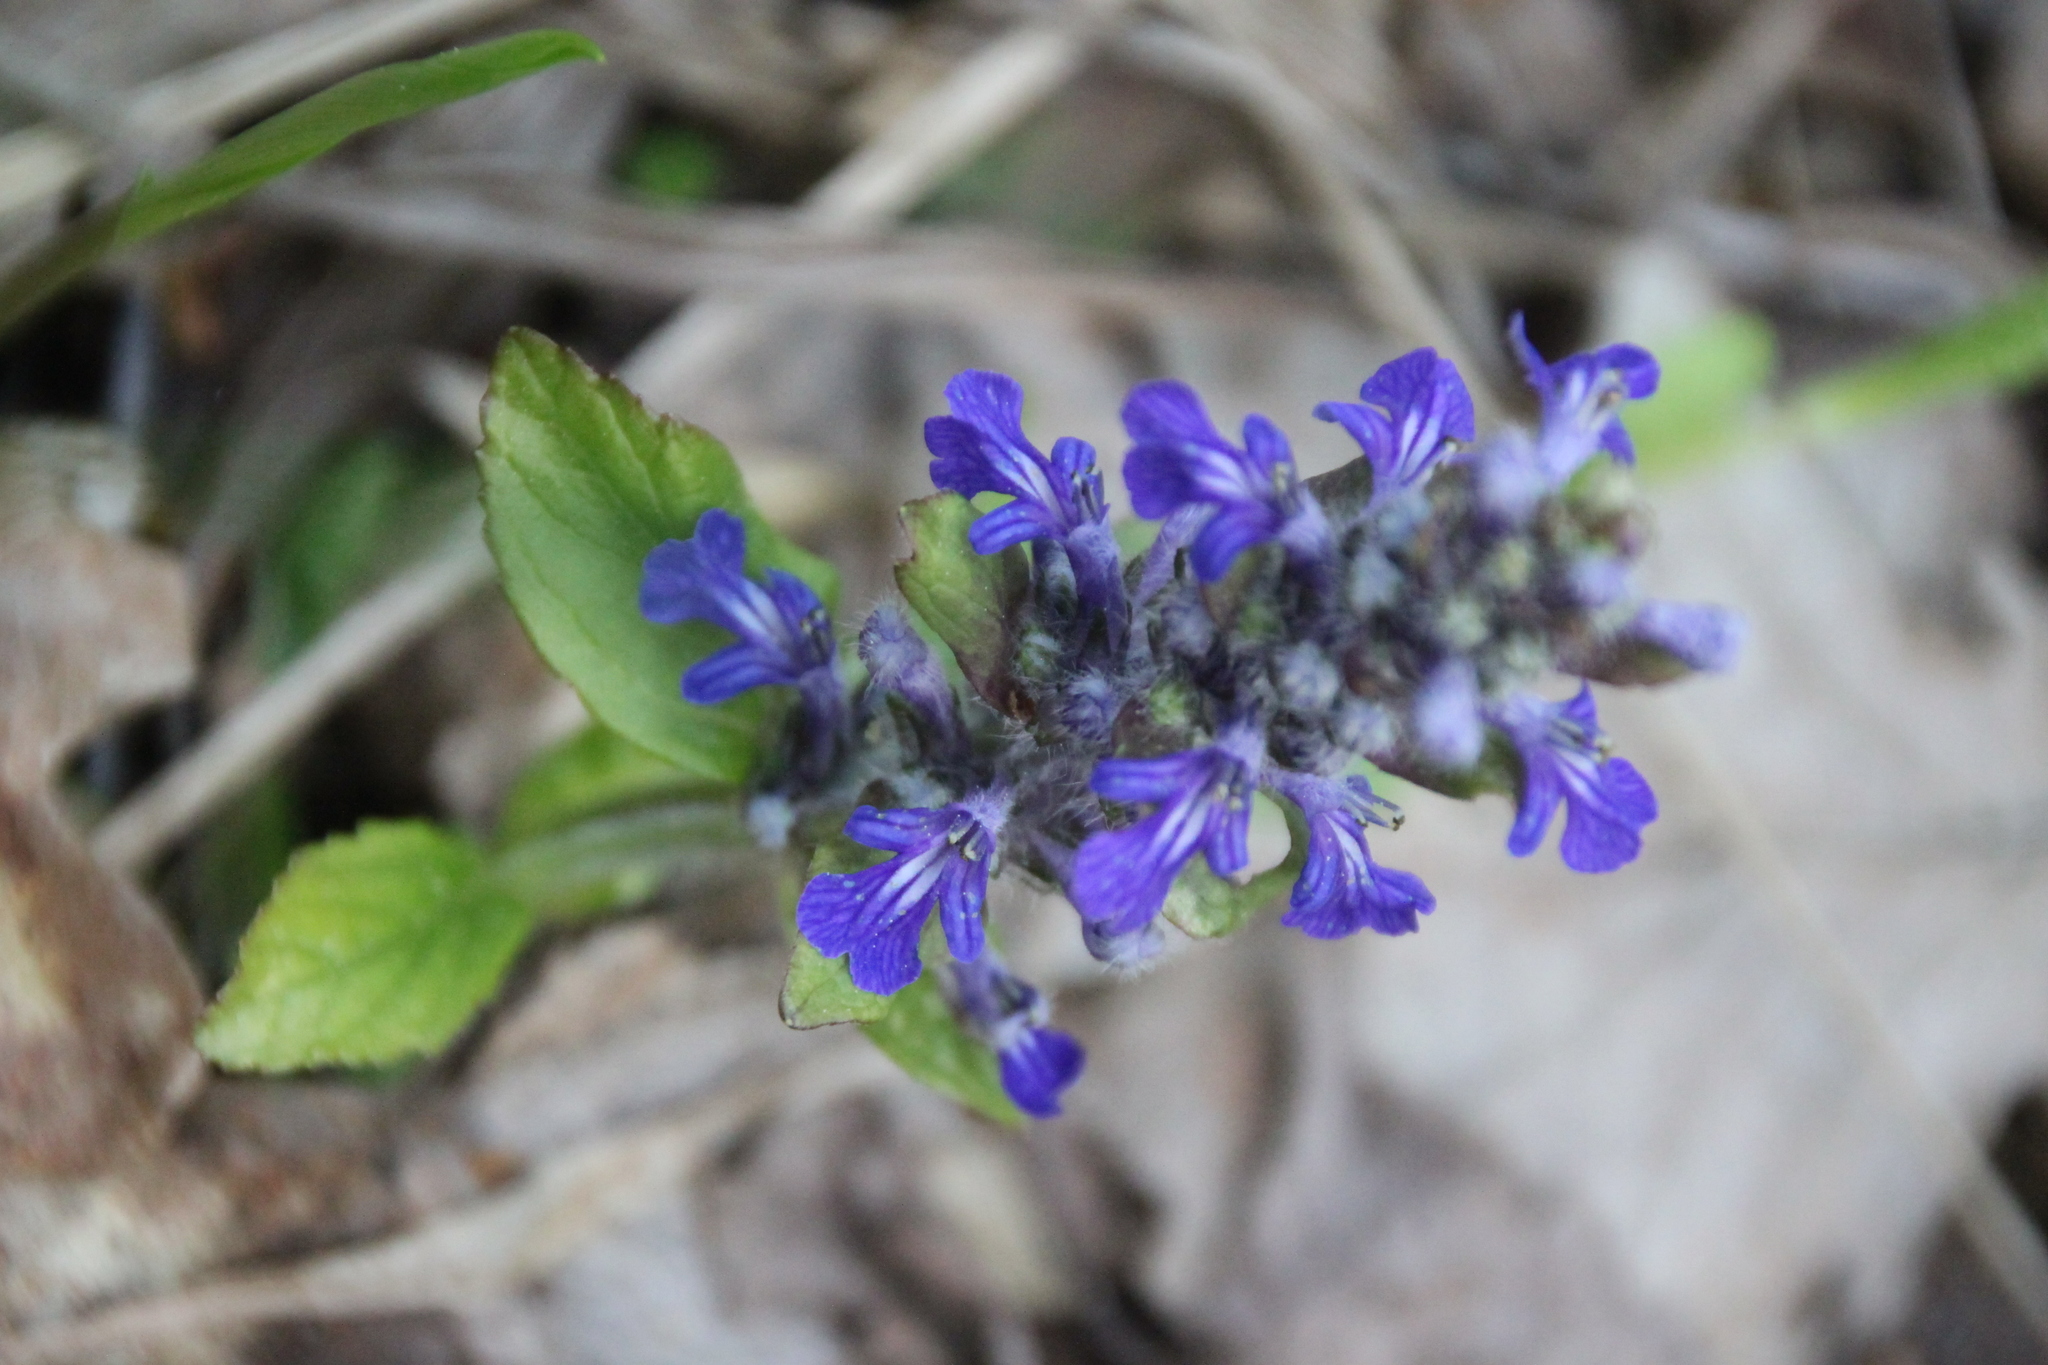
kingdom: Plantae
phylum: Tracheophyta
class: Magnoliopsida
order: Lamiales
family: Lamiaceae
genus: Ajuga
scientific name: Ajuga reptans
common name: Bugle
